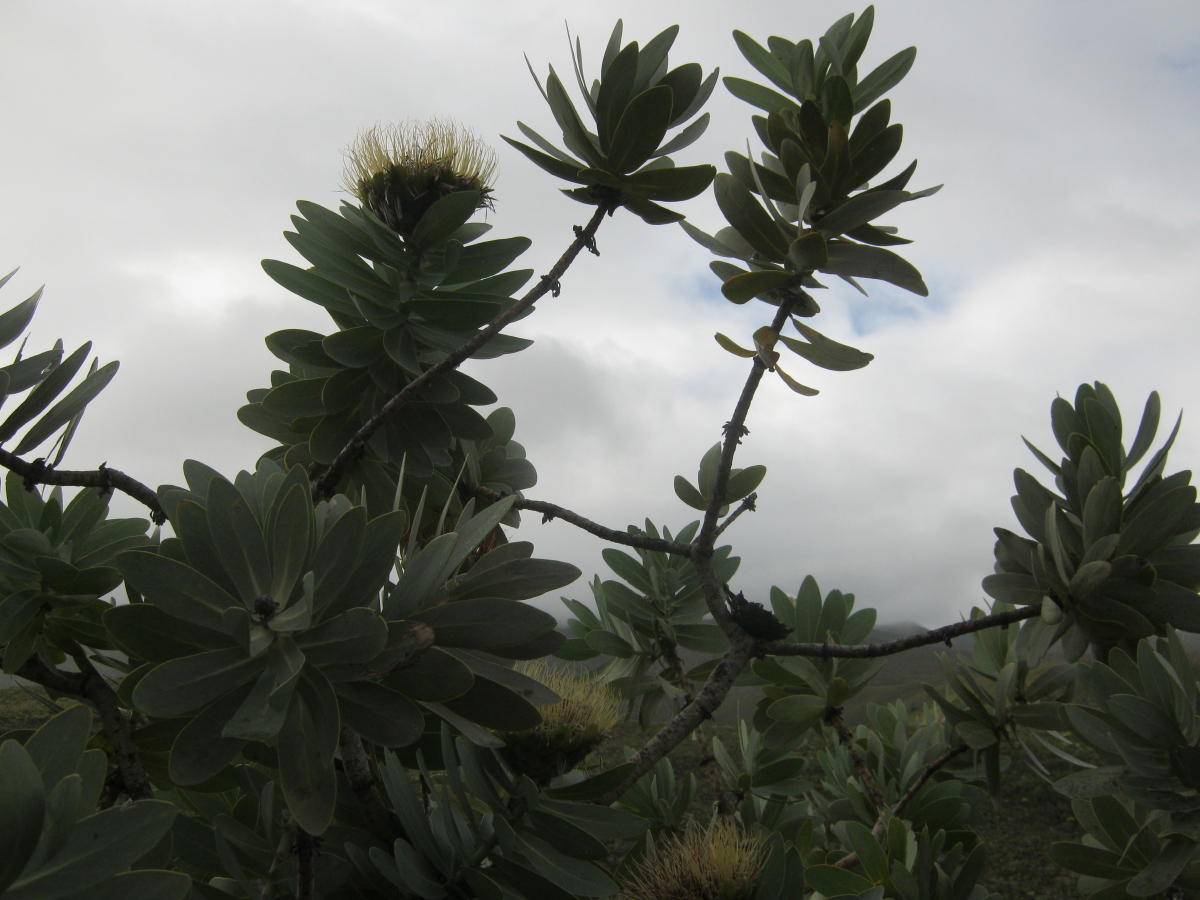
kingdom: Plantae
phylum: Tracheophyta
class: Magnoliopsida
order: Proteales
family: Proteaceae
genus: Protea
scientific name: Protea nitida
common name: Tree protea
